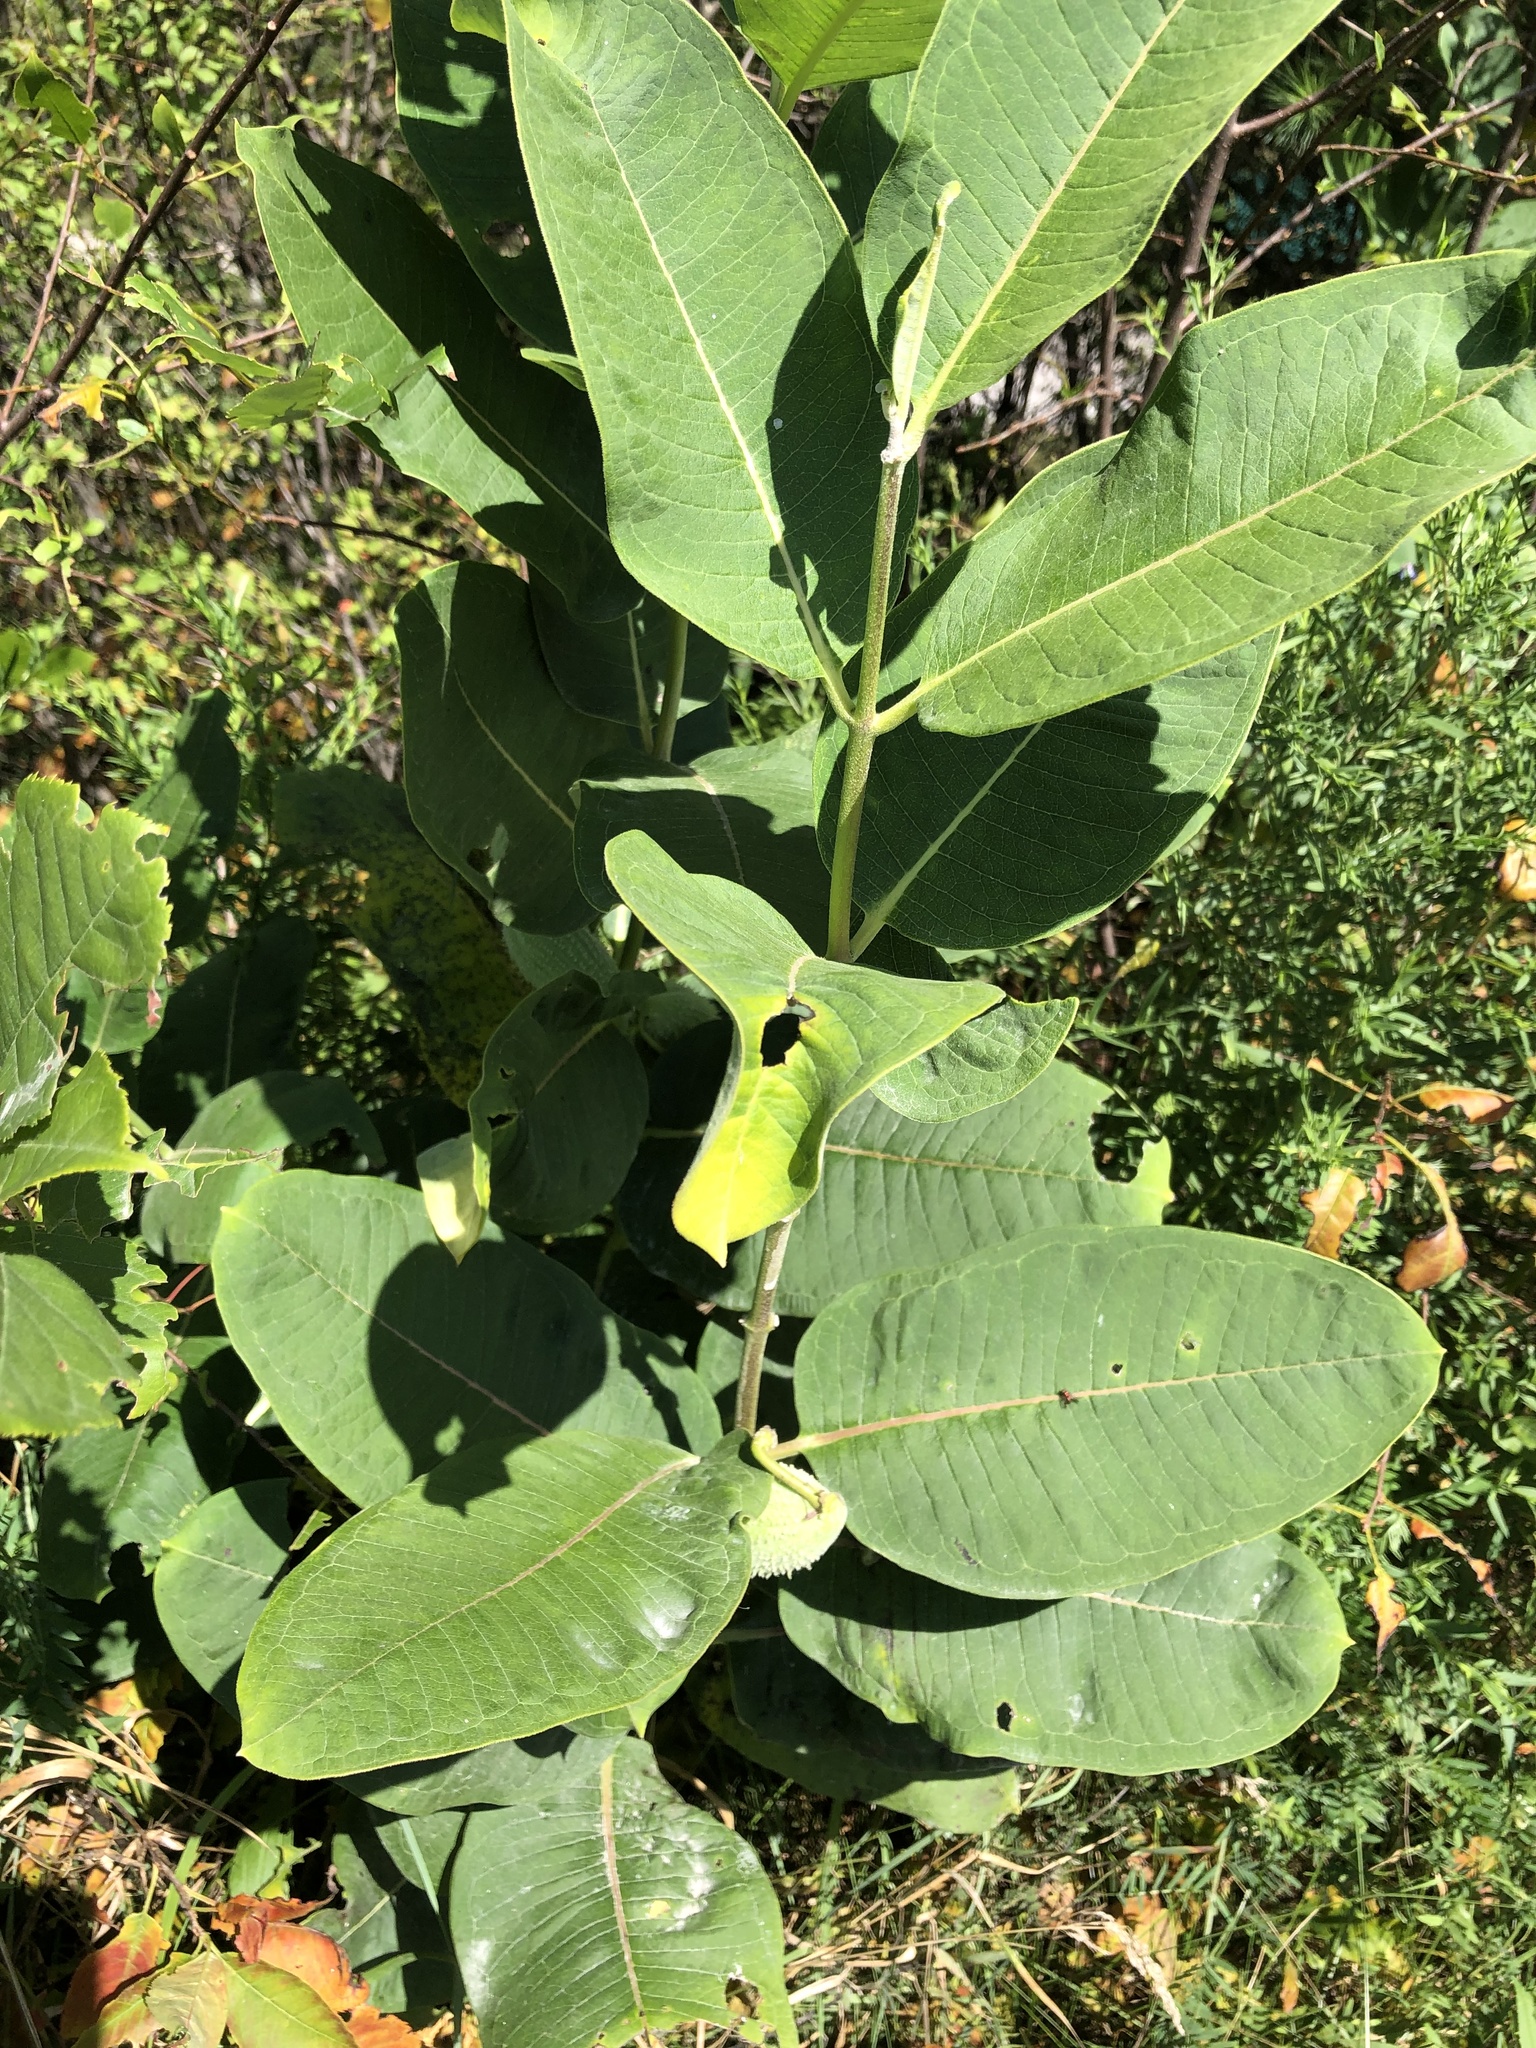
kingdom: Plantae
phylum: Tracheophyta
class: Magnoliopsida
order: Gentianales
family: Apocynaceae
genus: Asclepias
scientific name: Asclepias syriaca
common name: Common milkweed
